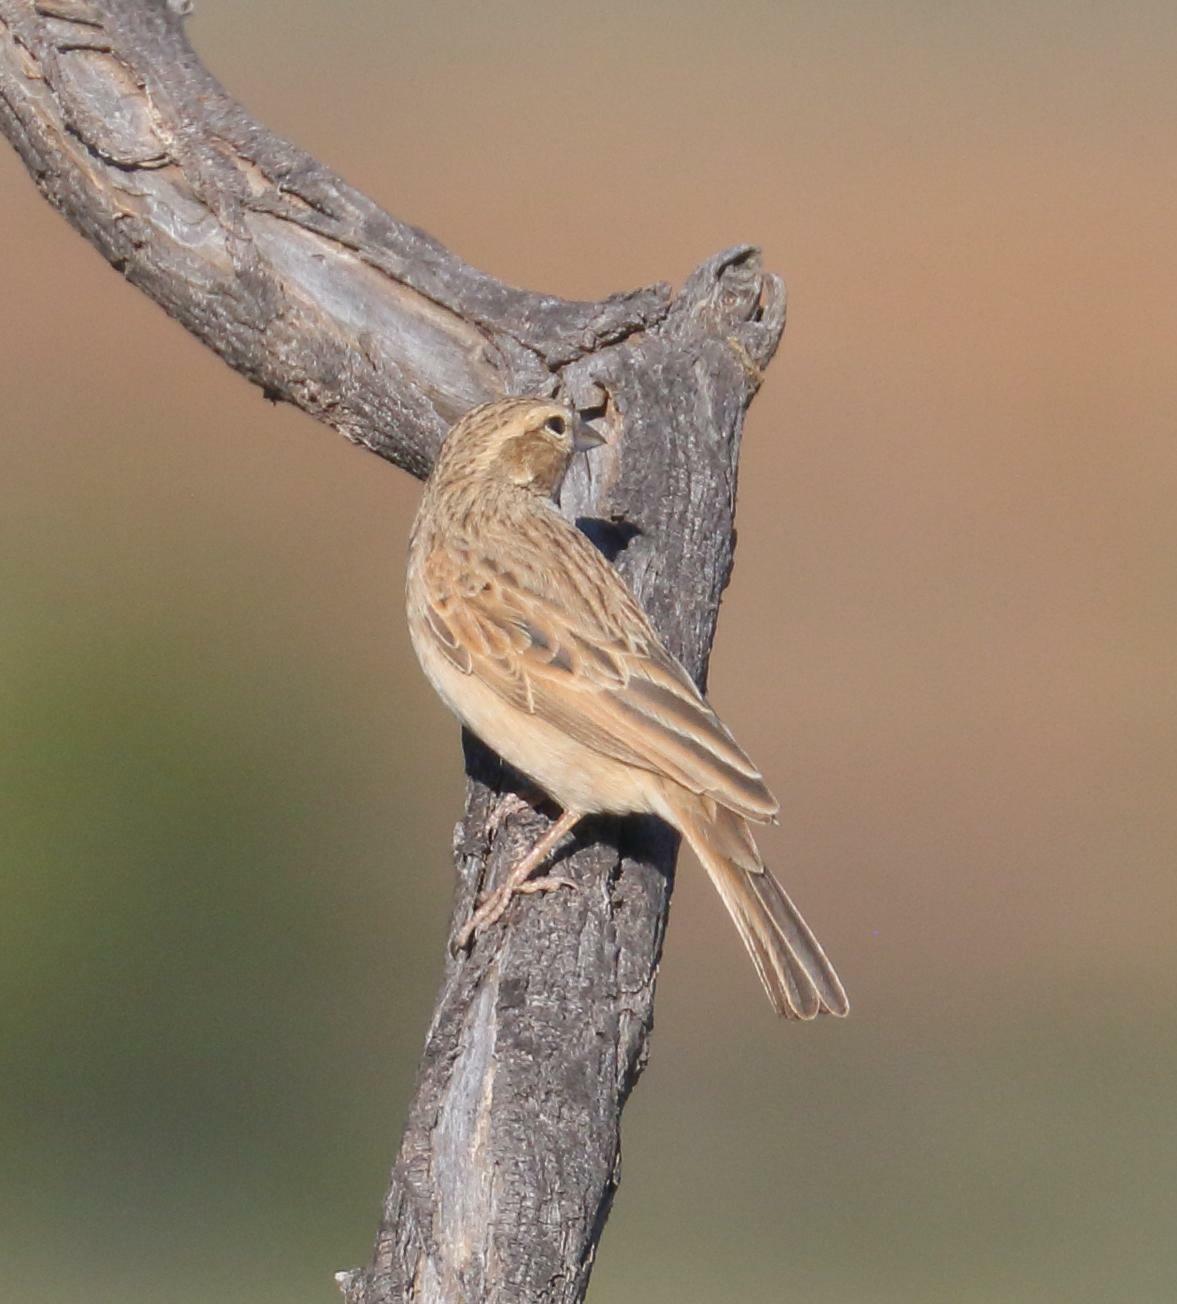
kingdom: Animalia
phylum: Chordata
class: Aves
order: Passeriformes
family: Emberizidae
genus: Emberiza
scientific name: Emberiza impetuani
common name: Lark-like bunting
